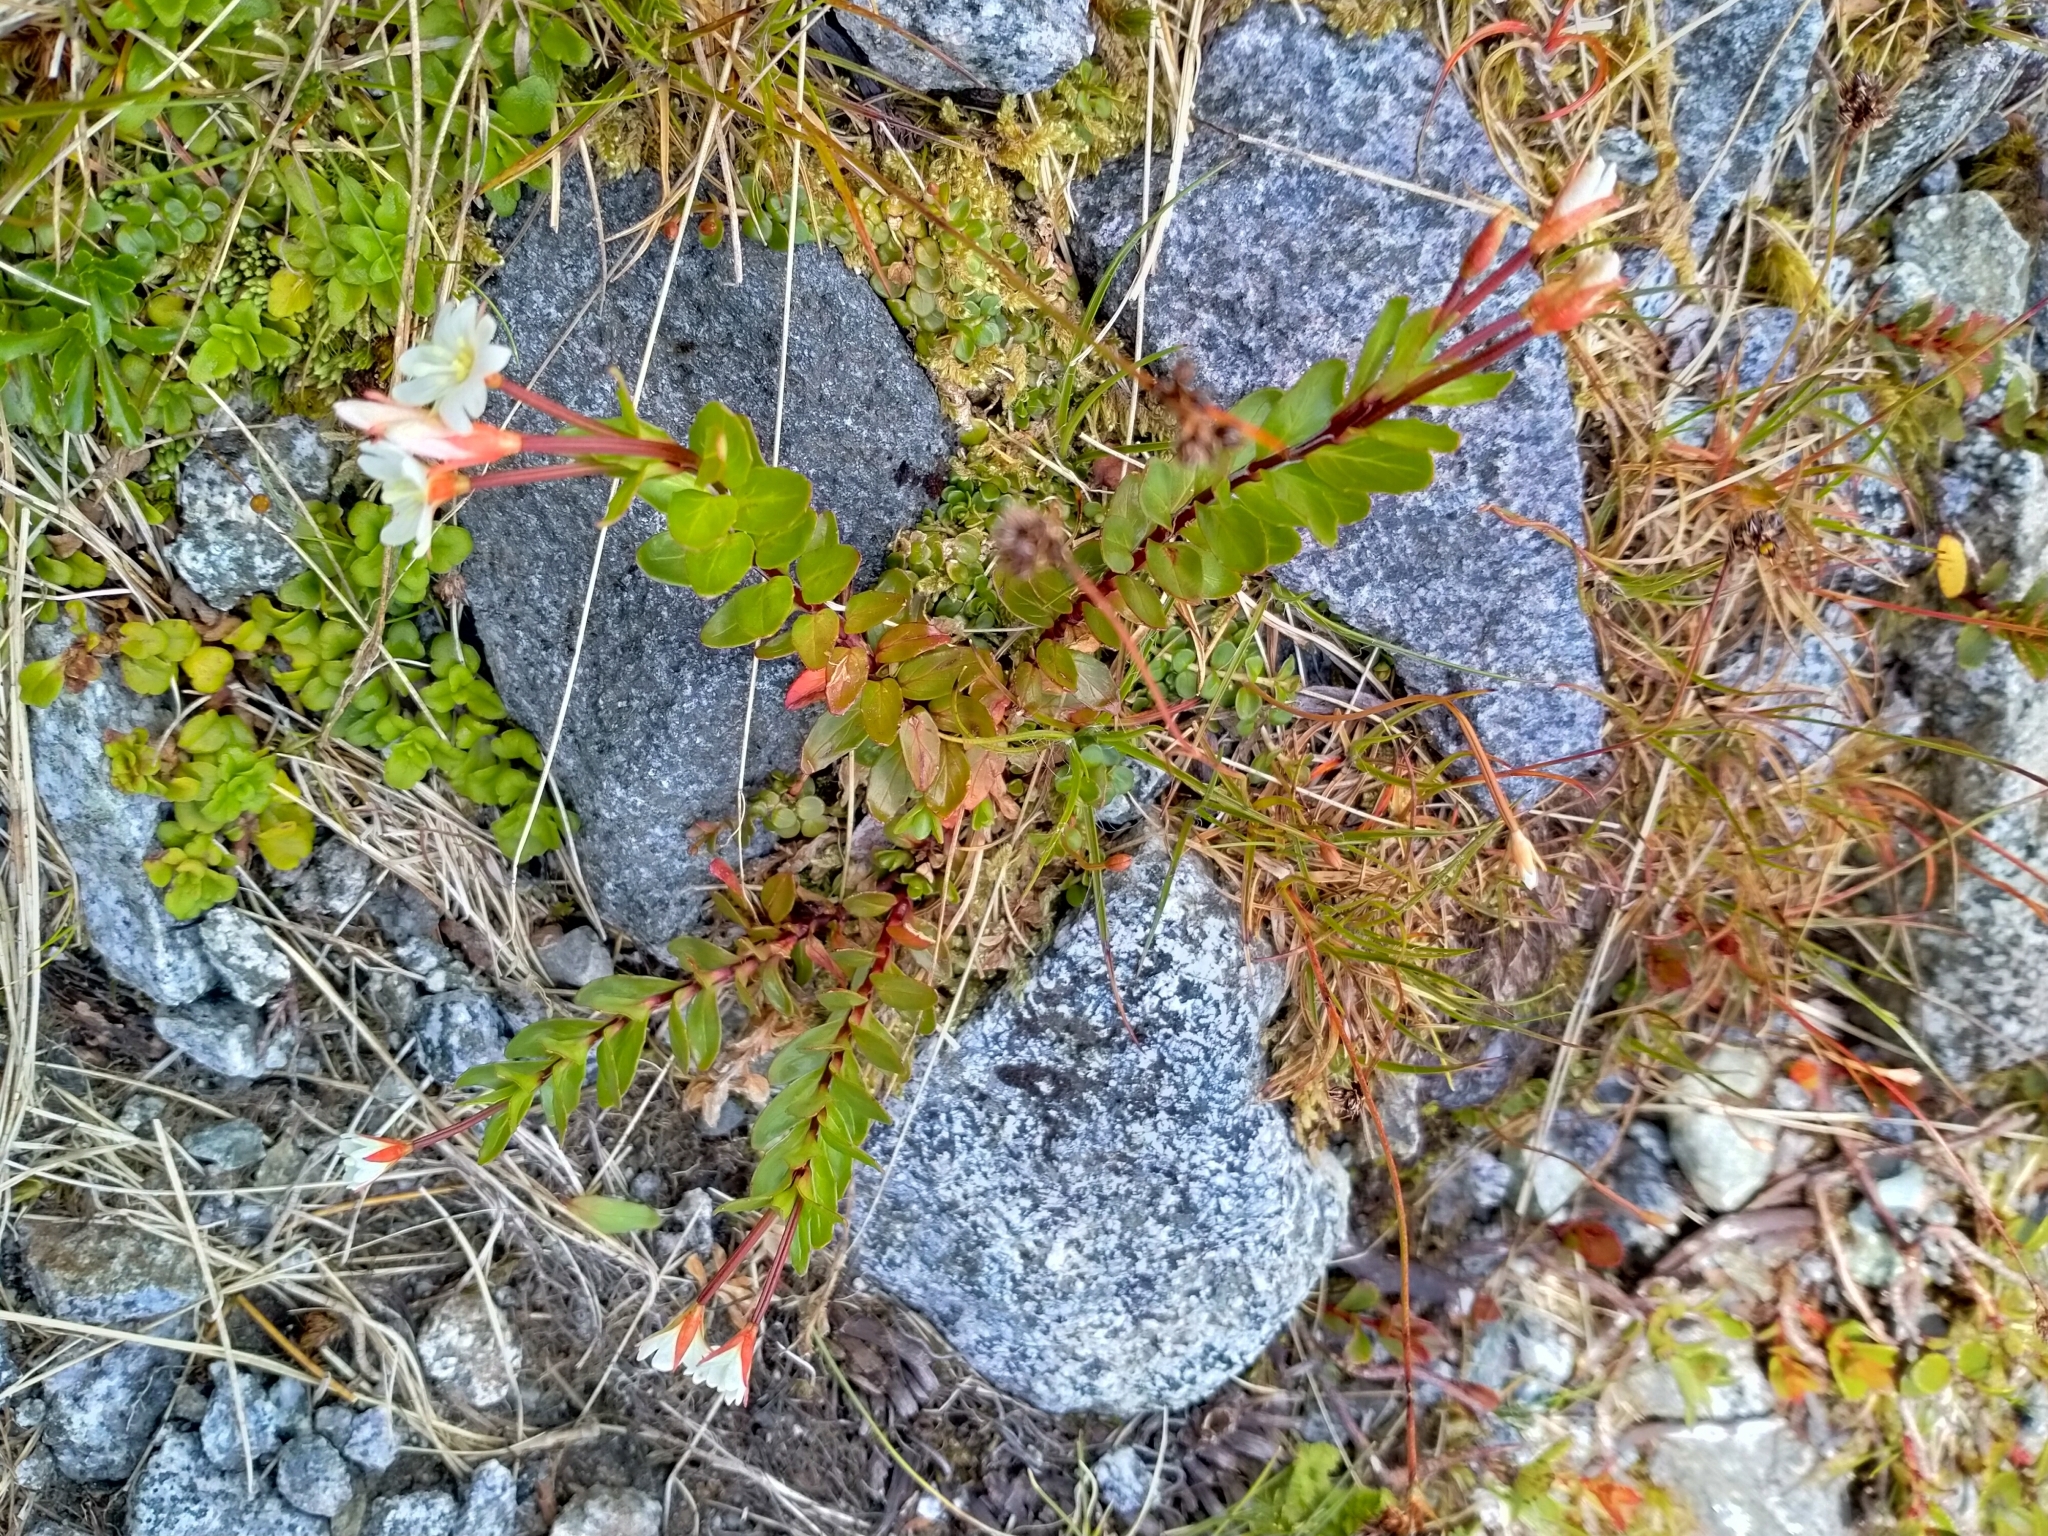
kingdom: Plantae
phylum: Tracheophyta
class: Magnoliopsida
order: Myrtales
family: Onagraceae
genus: Epilobium
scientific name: Epilobium glabellum
